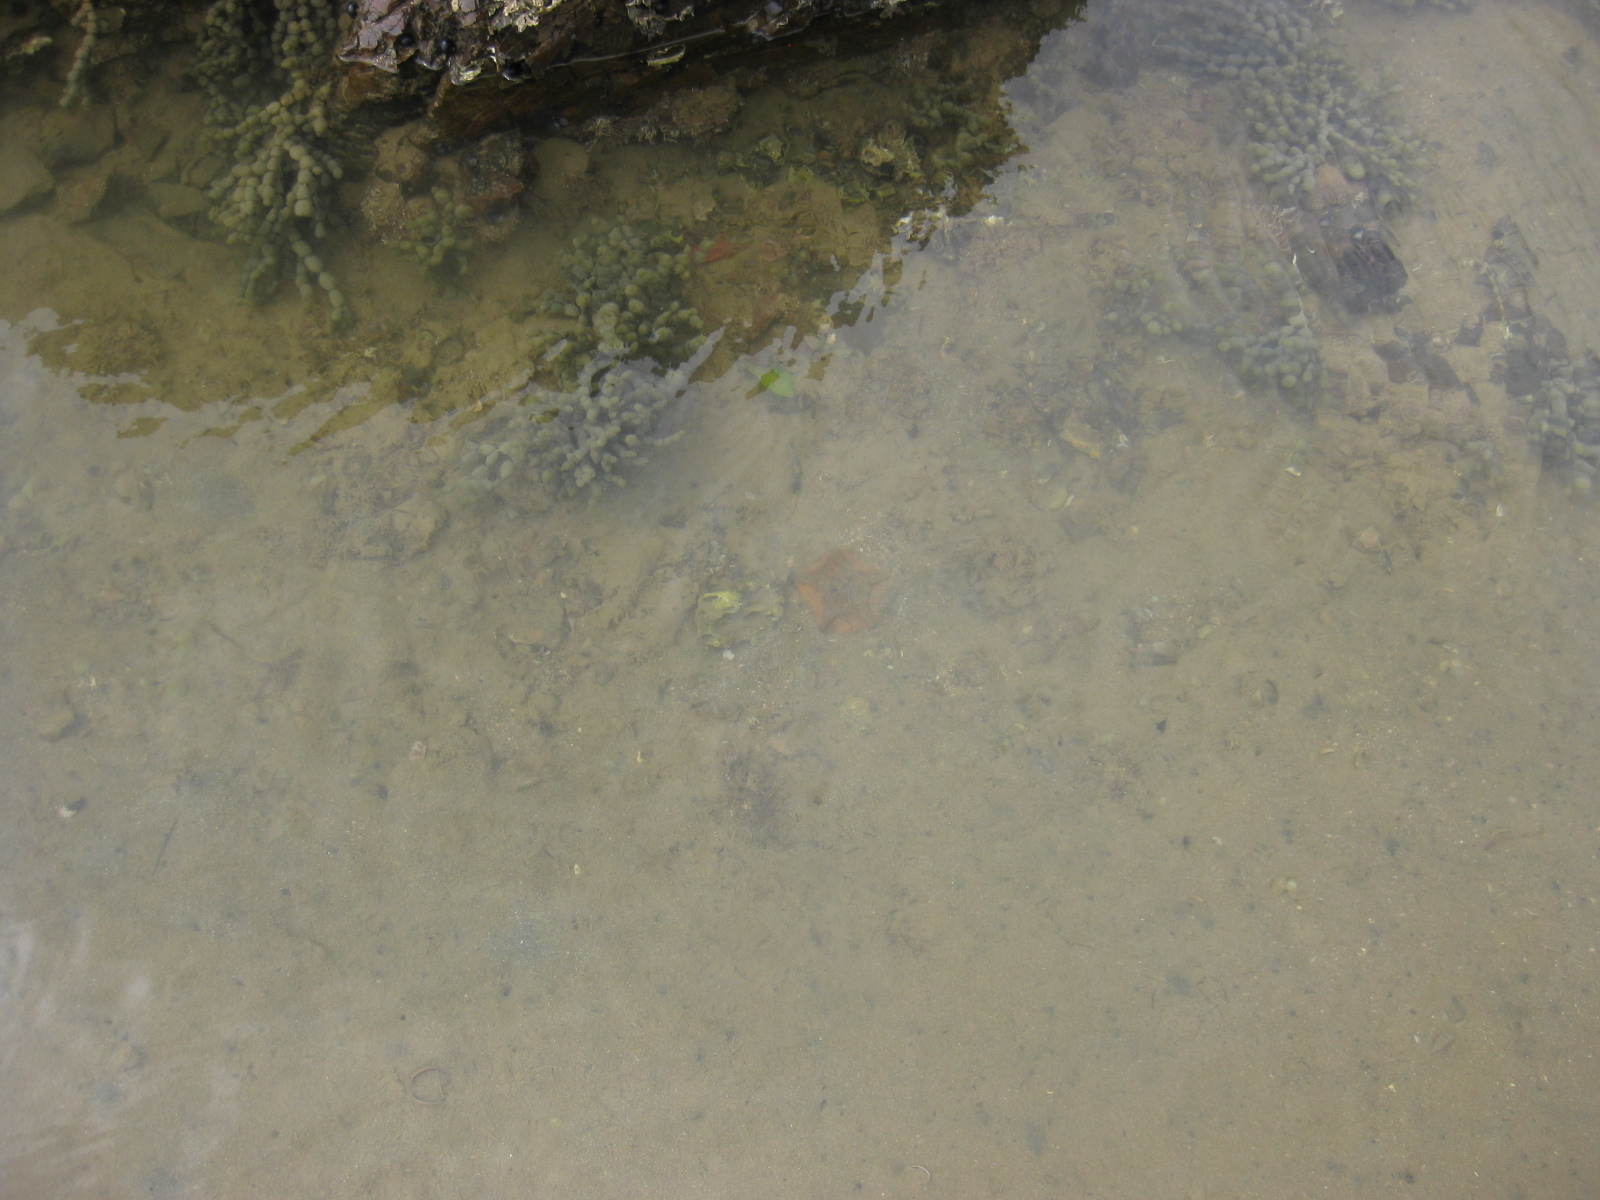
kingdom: Animalia
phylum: Echinodermata
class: Asteroidea
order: Valvatida
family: Asterinidae
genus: Patiriella
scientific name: Patiriella regularis
